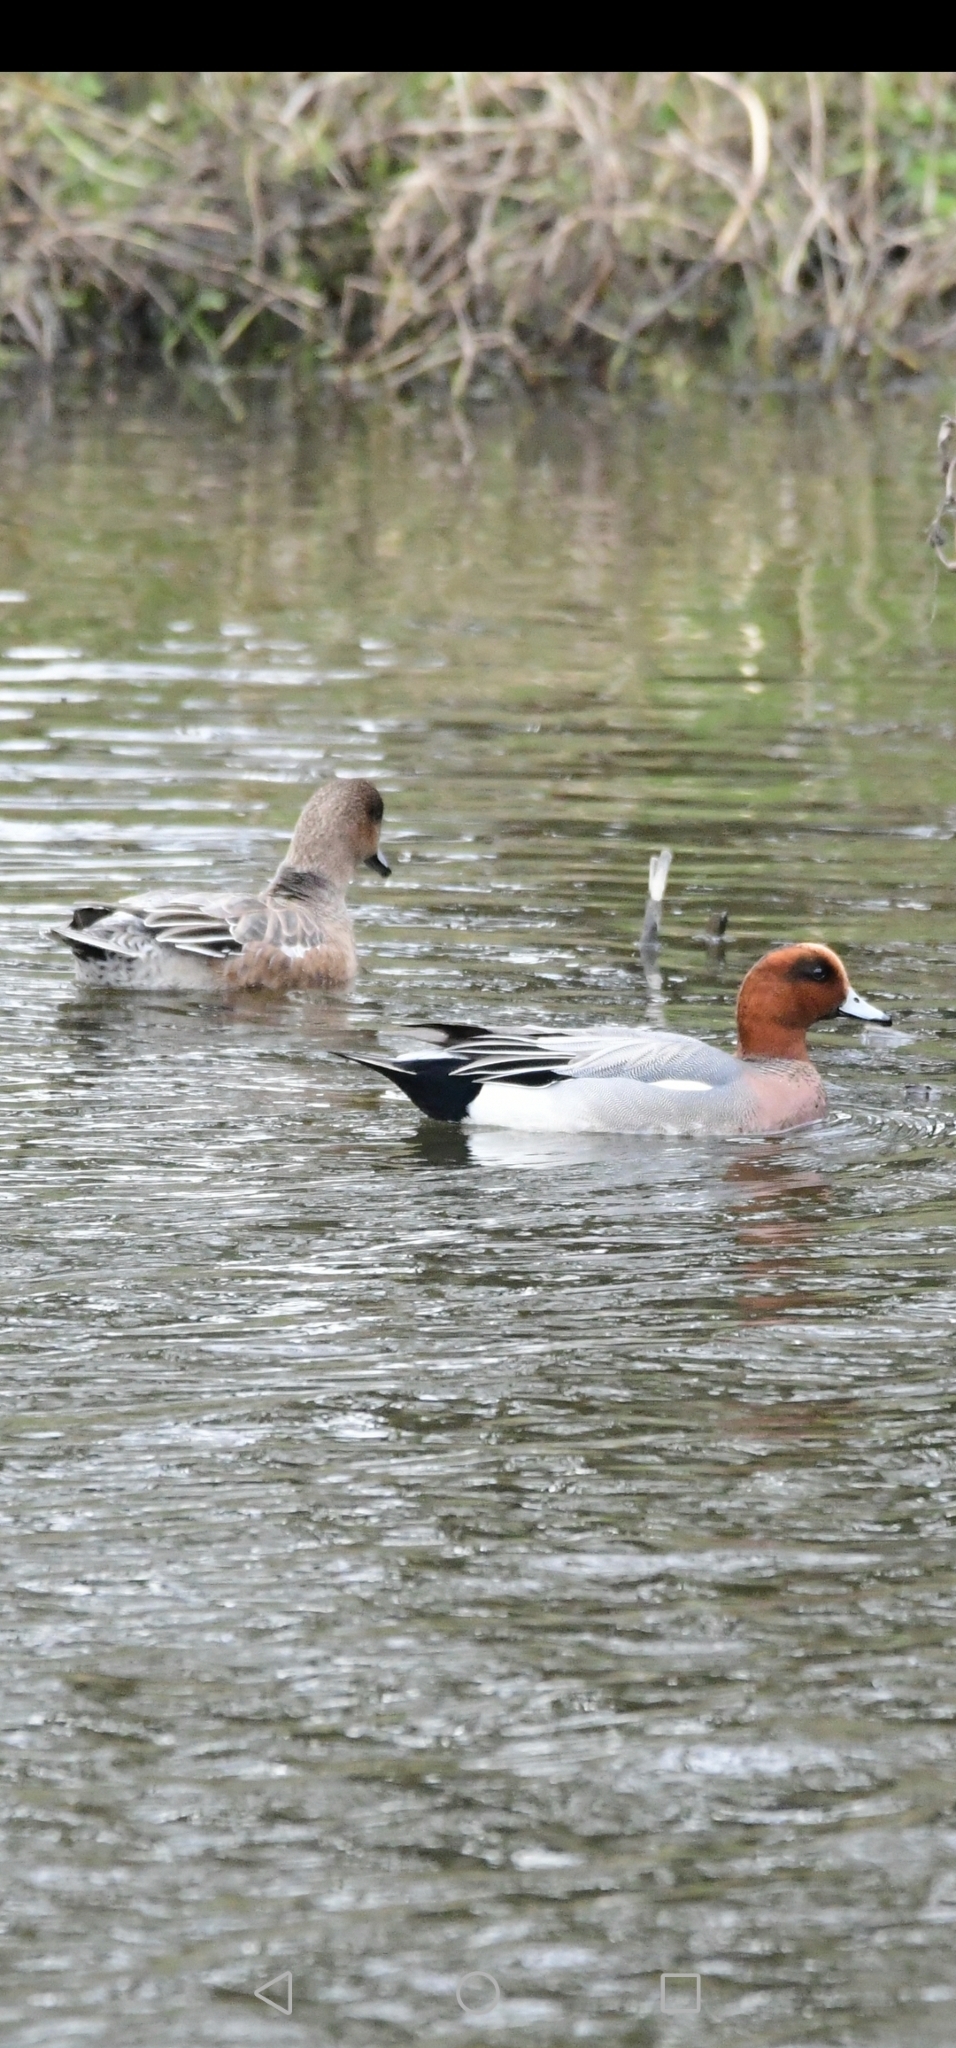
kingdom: Animalia
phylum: Chordata
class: Aves
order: Anseriformes
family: Anatidae
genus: Mareca
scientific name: Mareca penelope
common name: Eurasian wigeon
